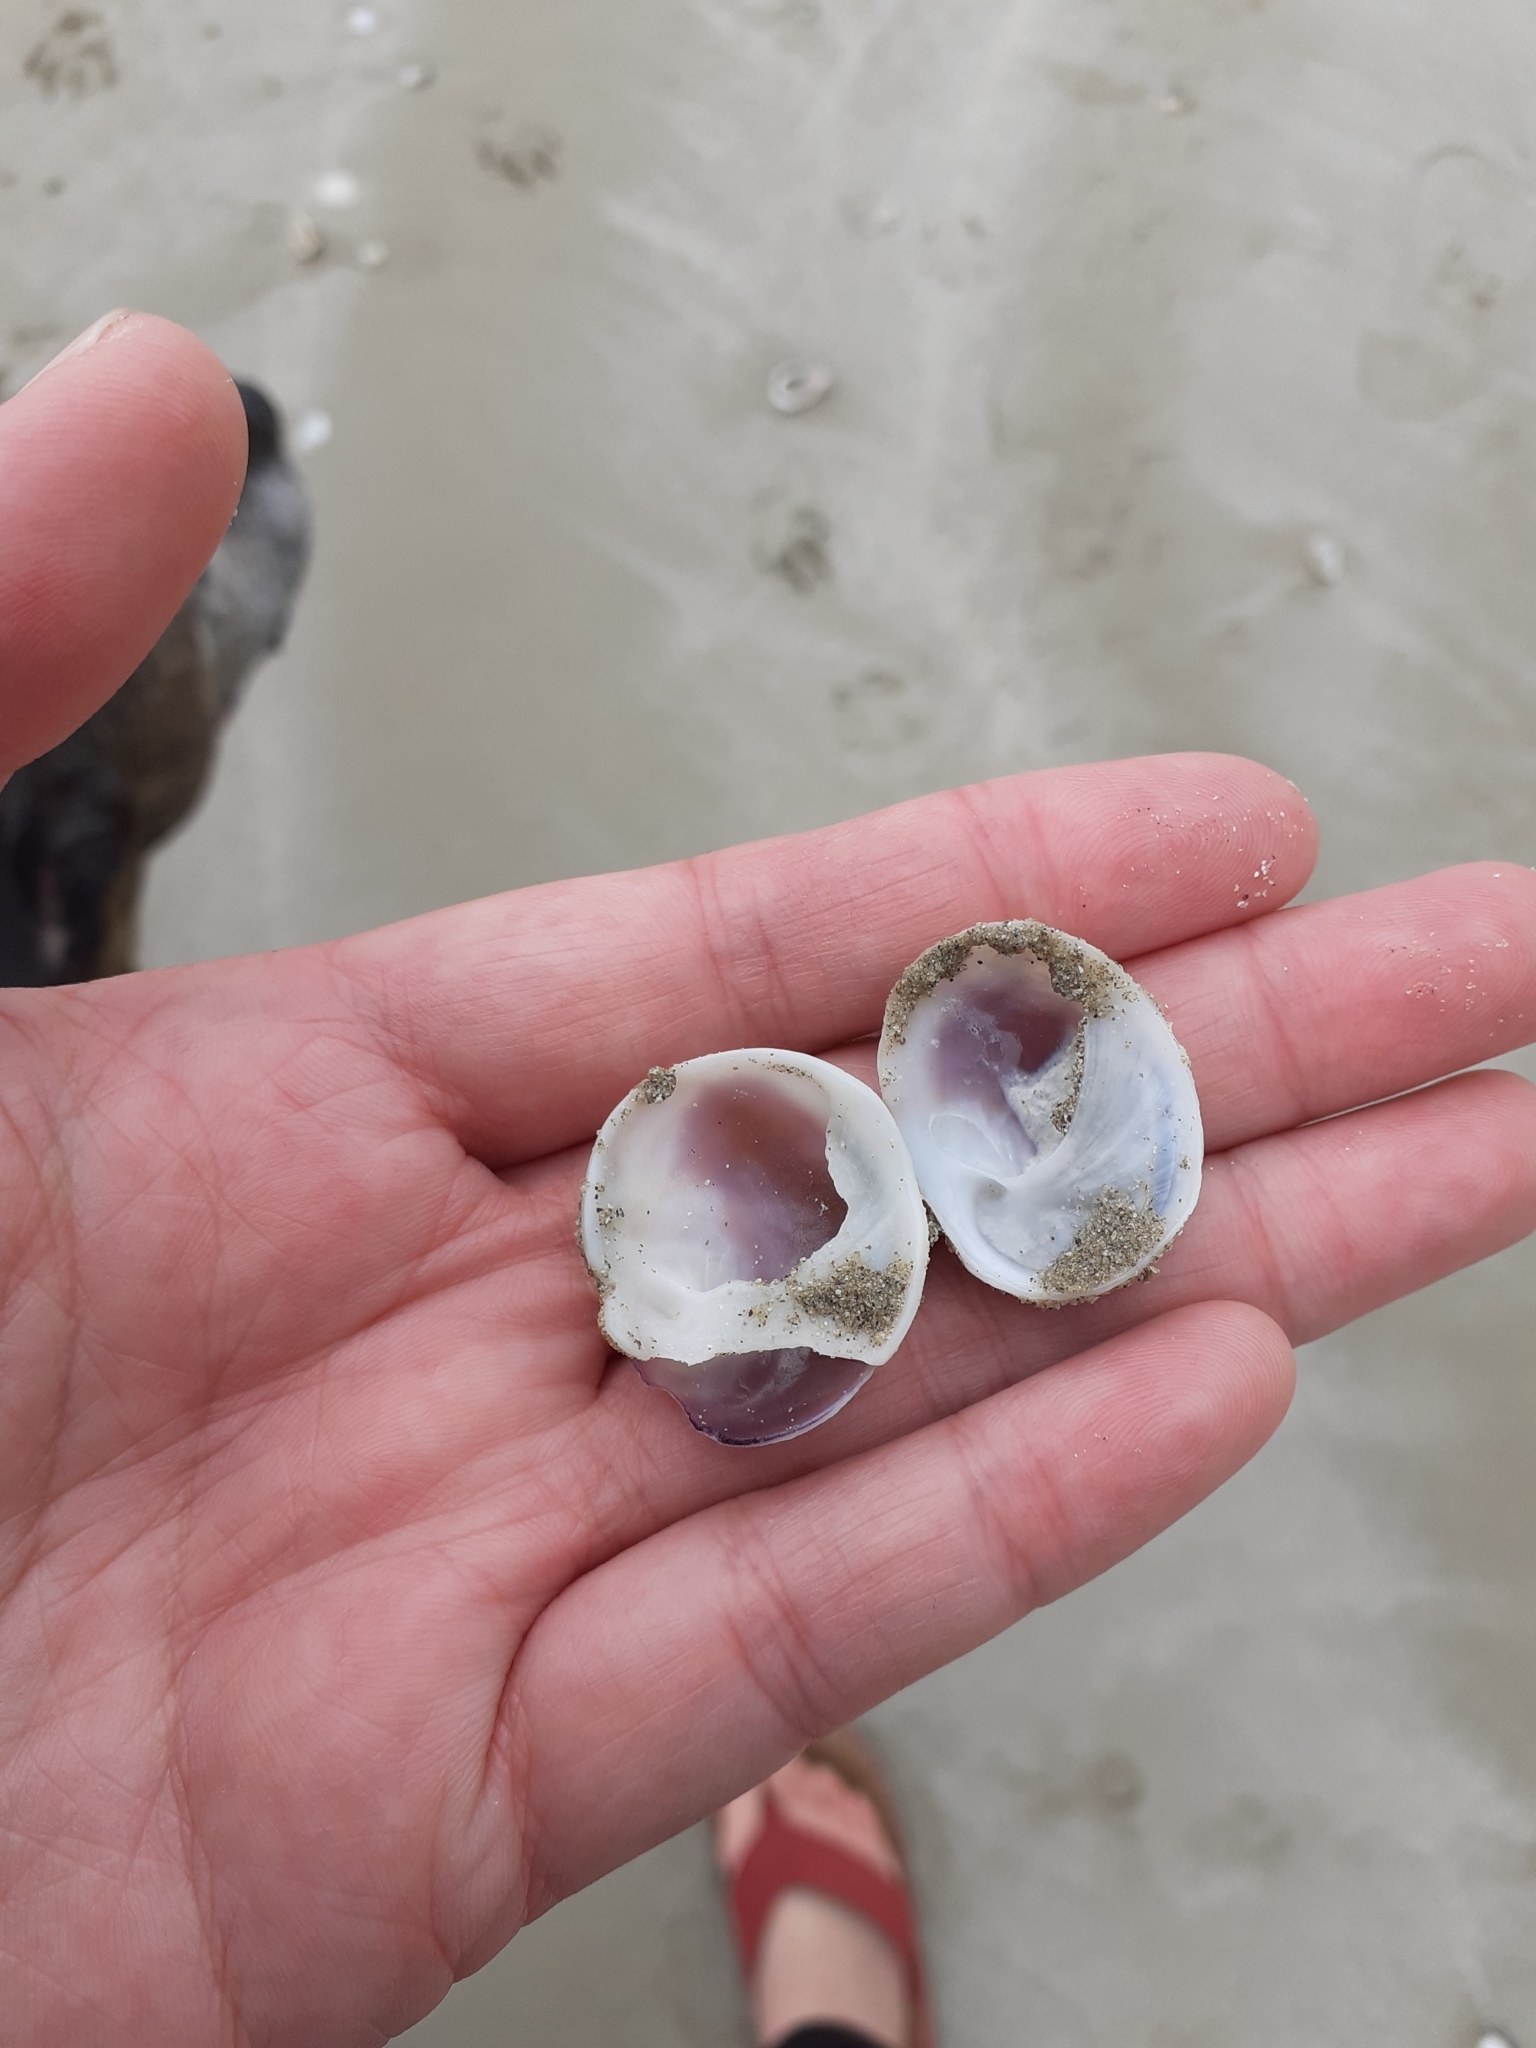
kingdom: Animalia
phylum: Mollusca
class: Gastropoda
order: Littorinimorpha
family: Calyptraeidae
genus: Sigapatella
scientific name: Sigapatella novaezelandiae
